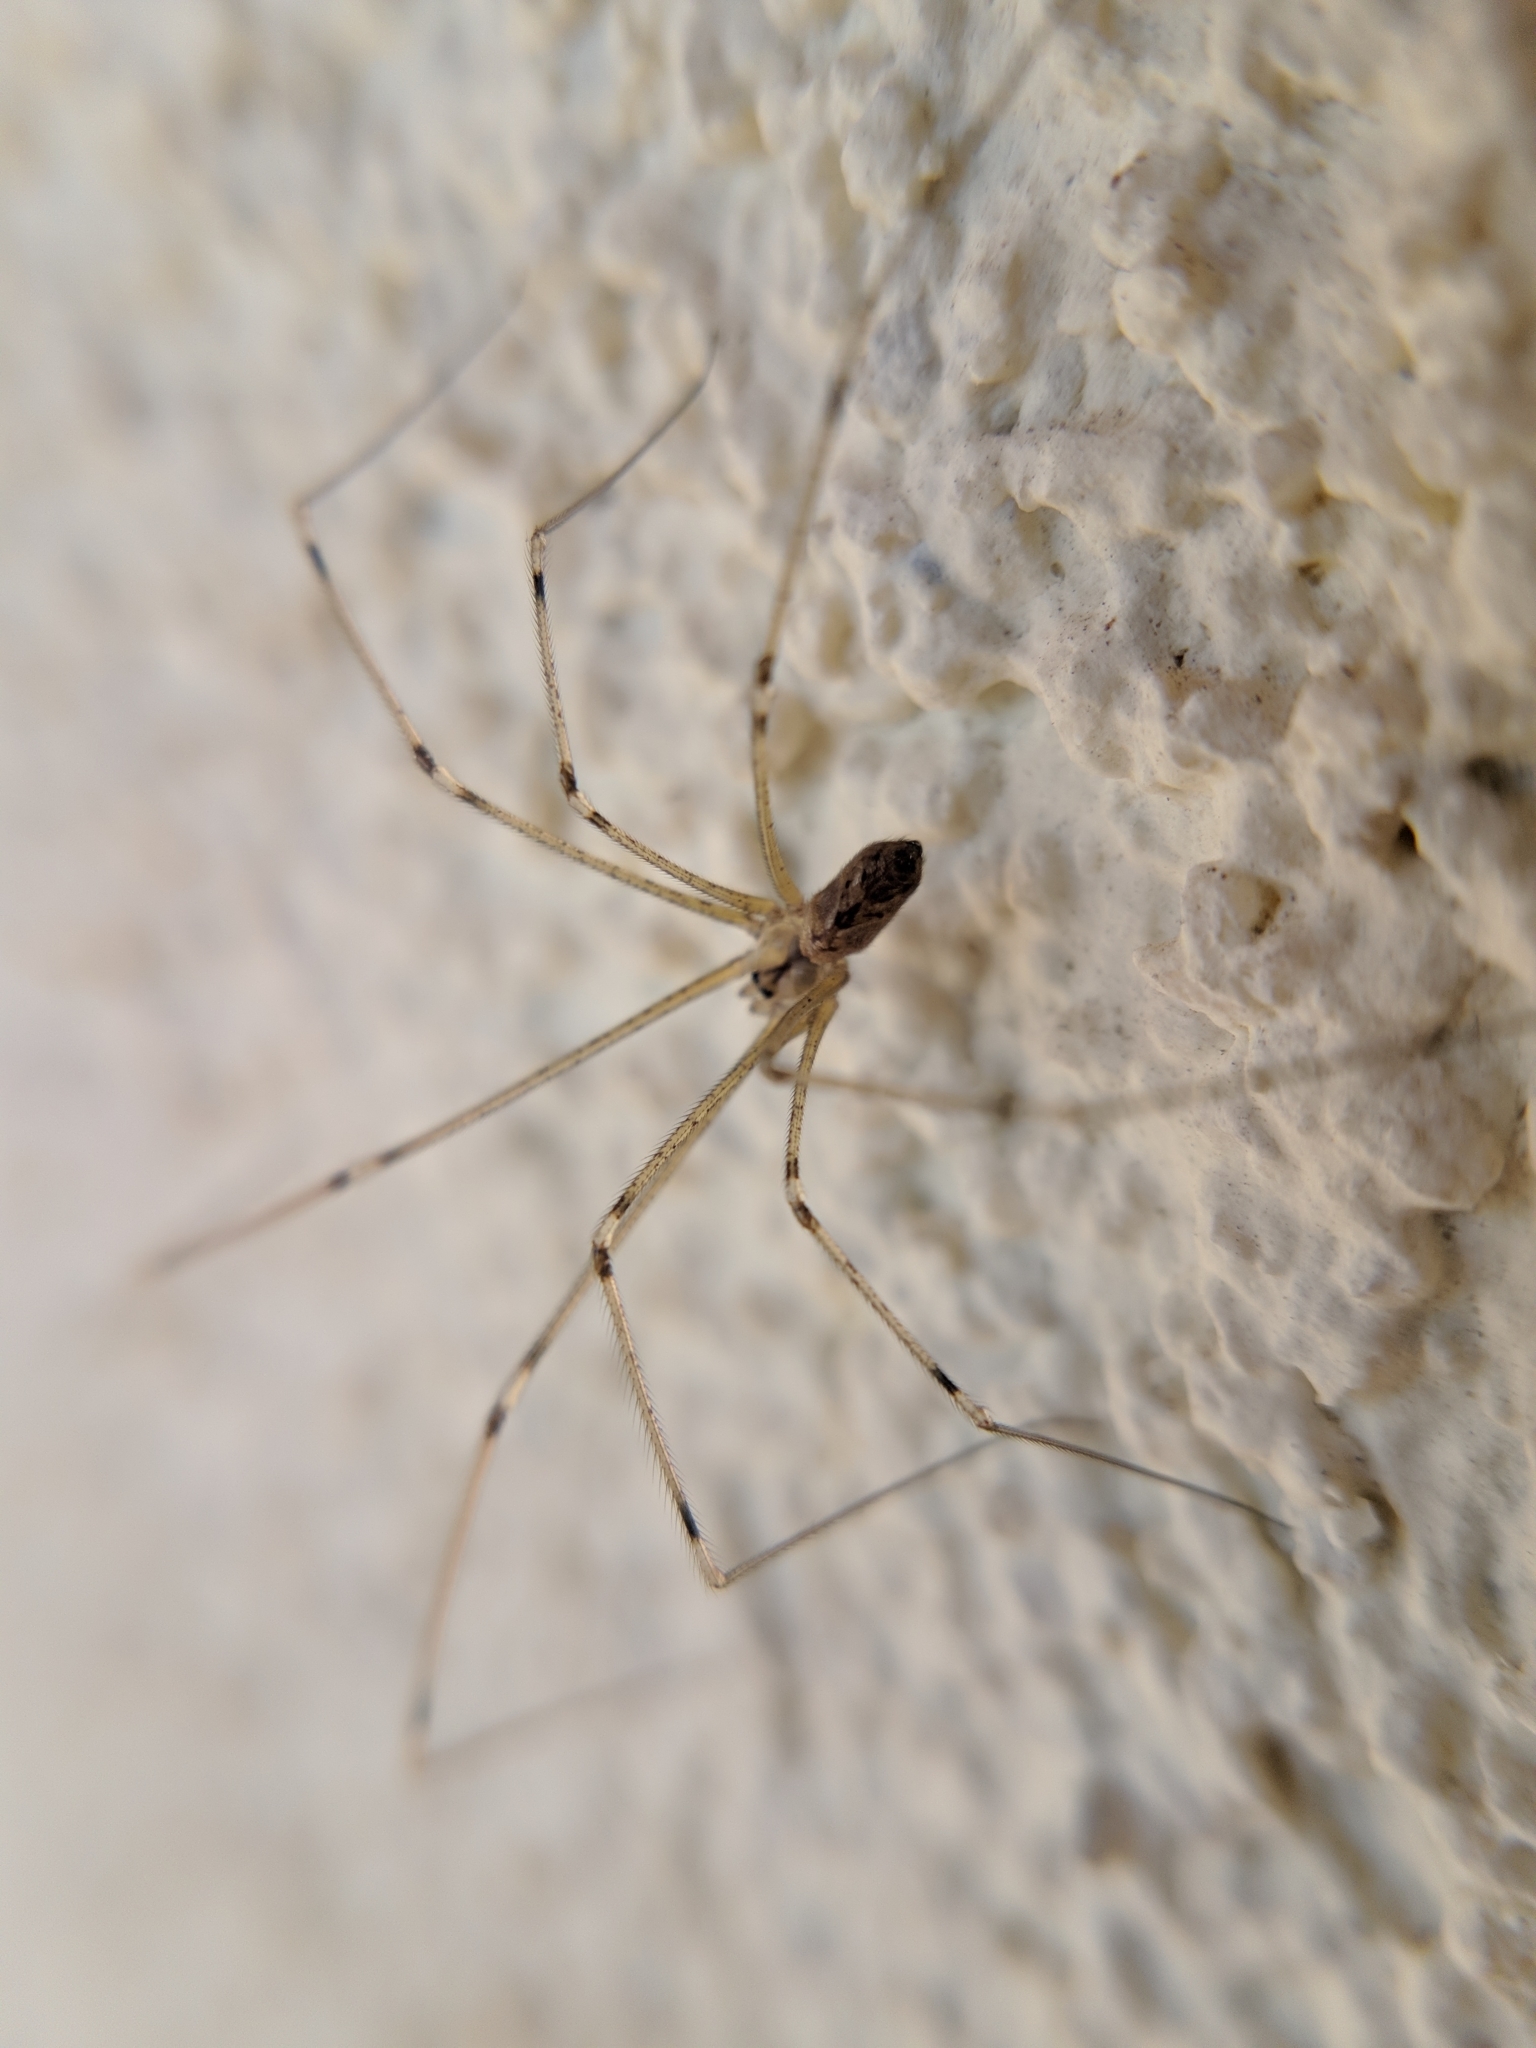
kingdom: Animalia
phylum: Arthropoda
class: Arachnida
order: Araneae
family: Pholcidae
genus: Holocnemus
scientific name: Holocnemus pluchei
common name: Marbled cellar spider
